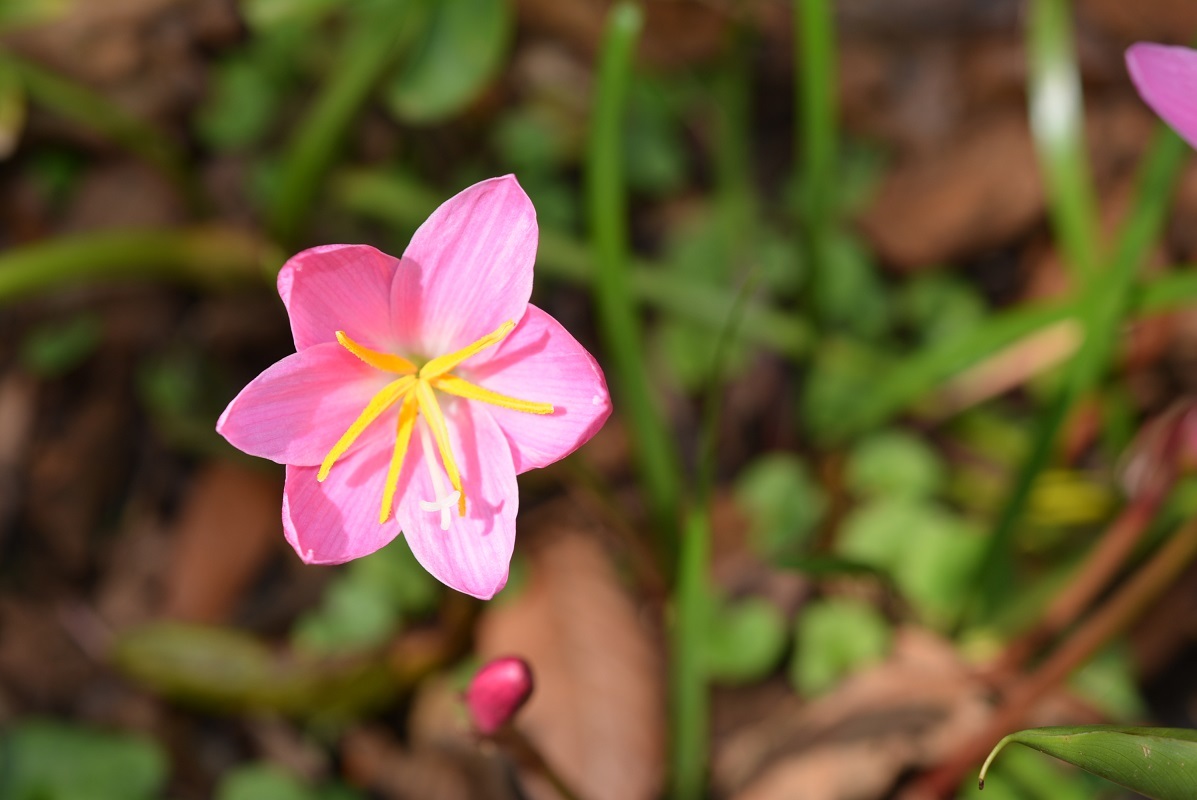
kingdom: Plantae
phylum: Tracheophyta
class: Liliopsida
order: Asparagales
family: Amaryllidaceae
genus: Zephyranthes
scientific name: Zephyranthes brevipes
